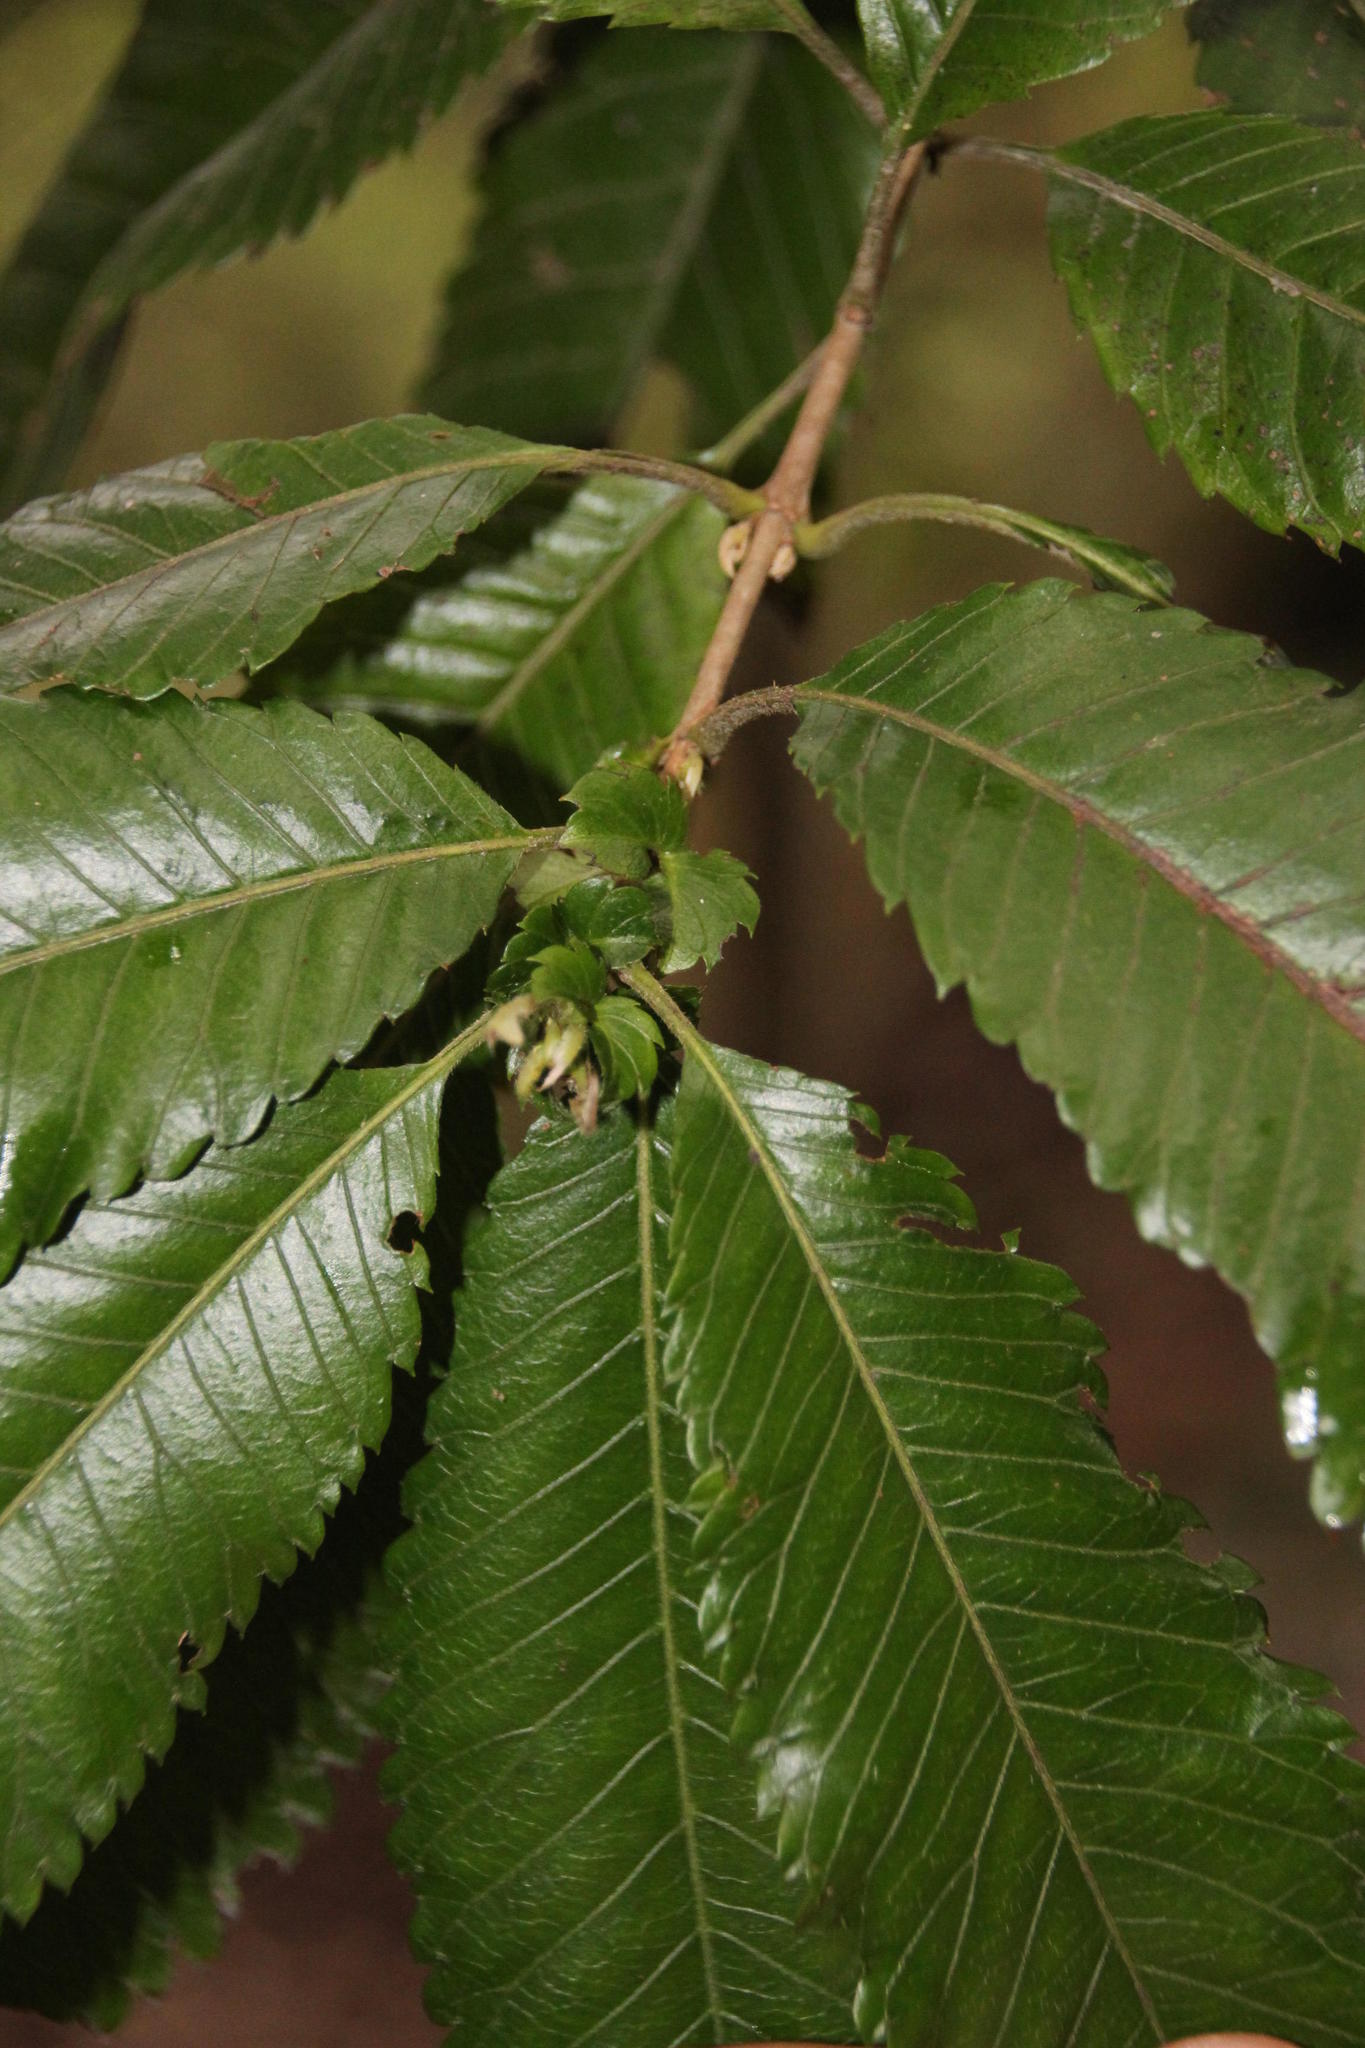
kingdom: Plantae
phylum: Tracheophyta
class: Magnoliopsida
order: Oxalidales
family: Cunoniaceae
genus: Caldcluvia
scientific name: Caldcluvia paniculata
